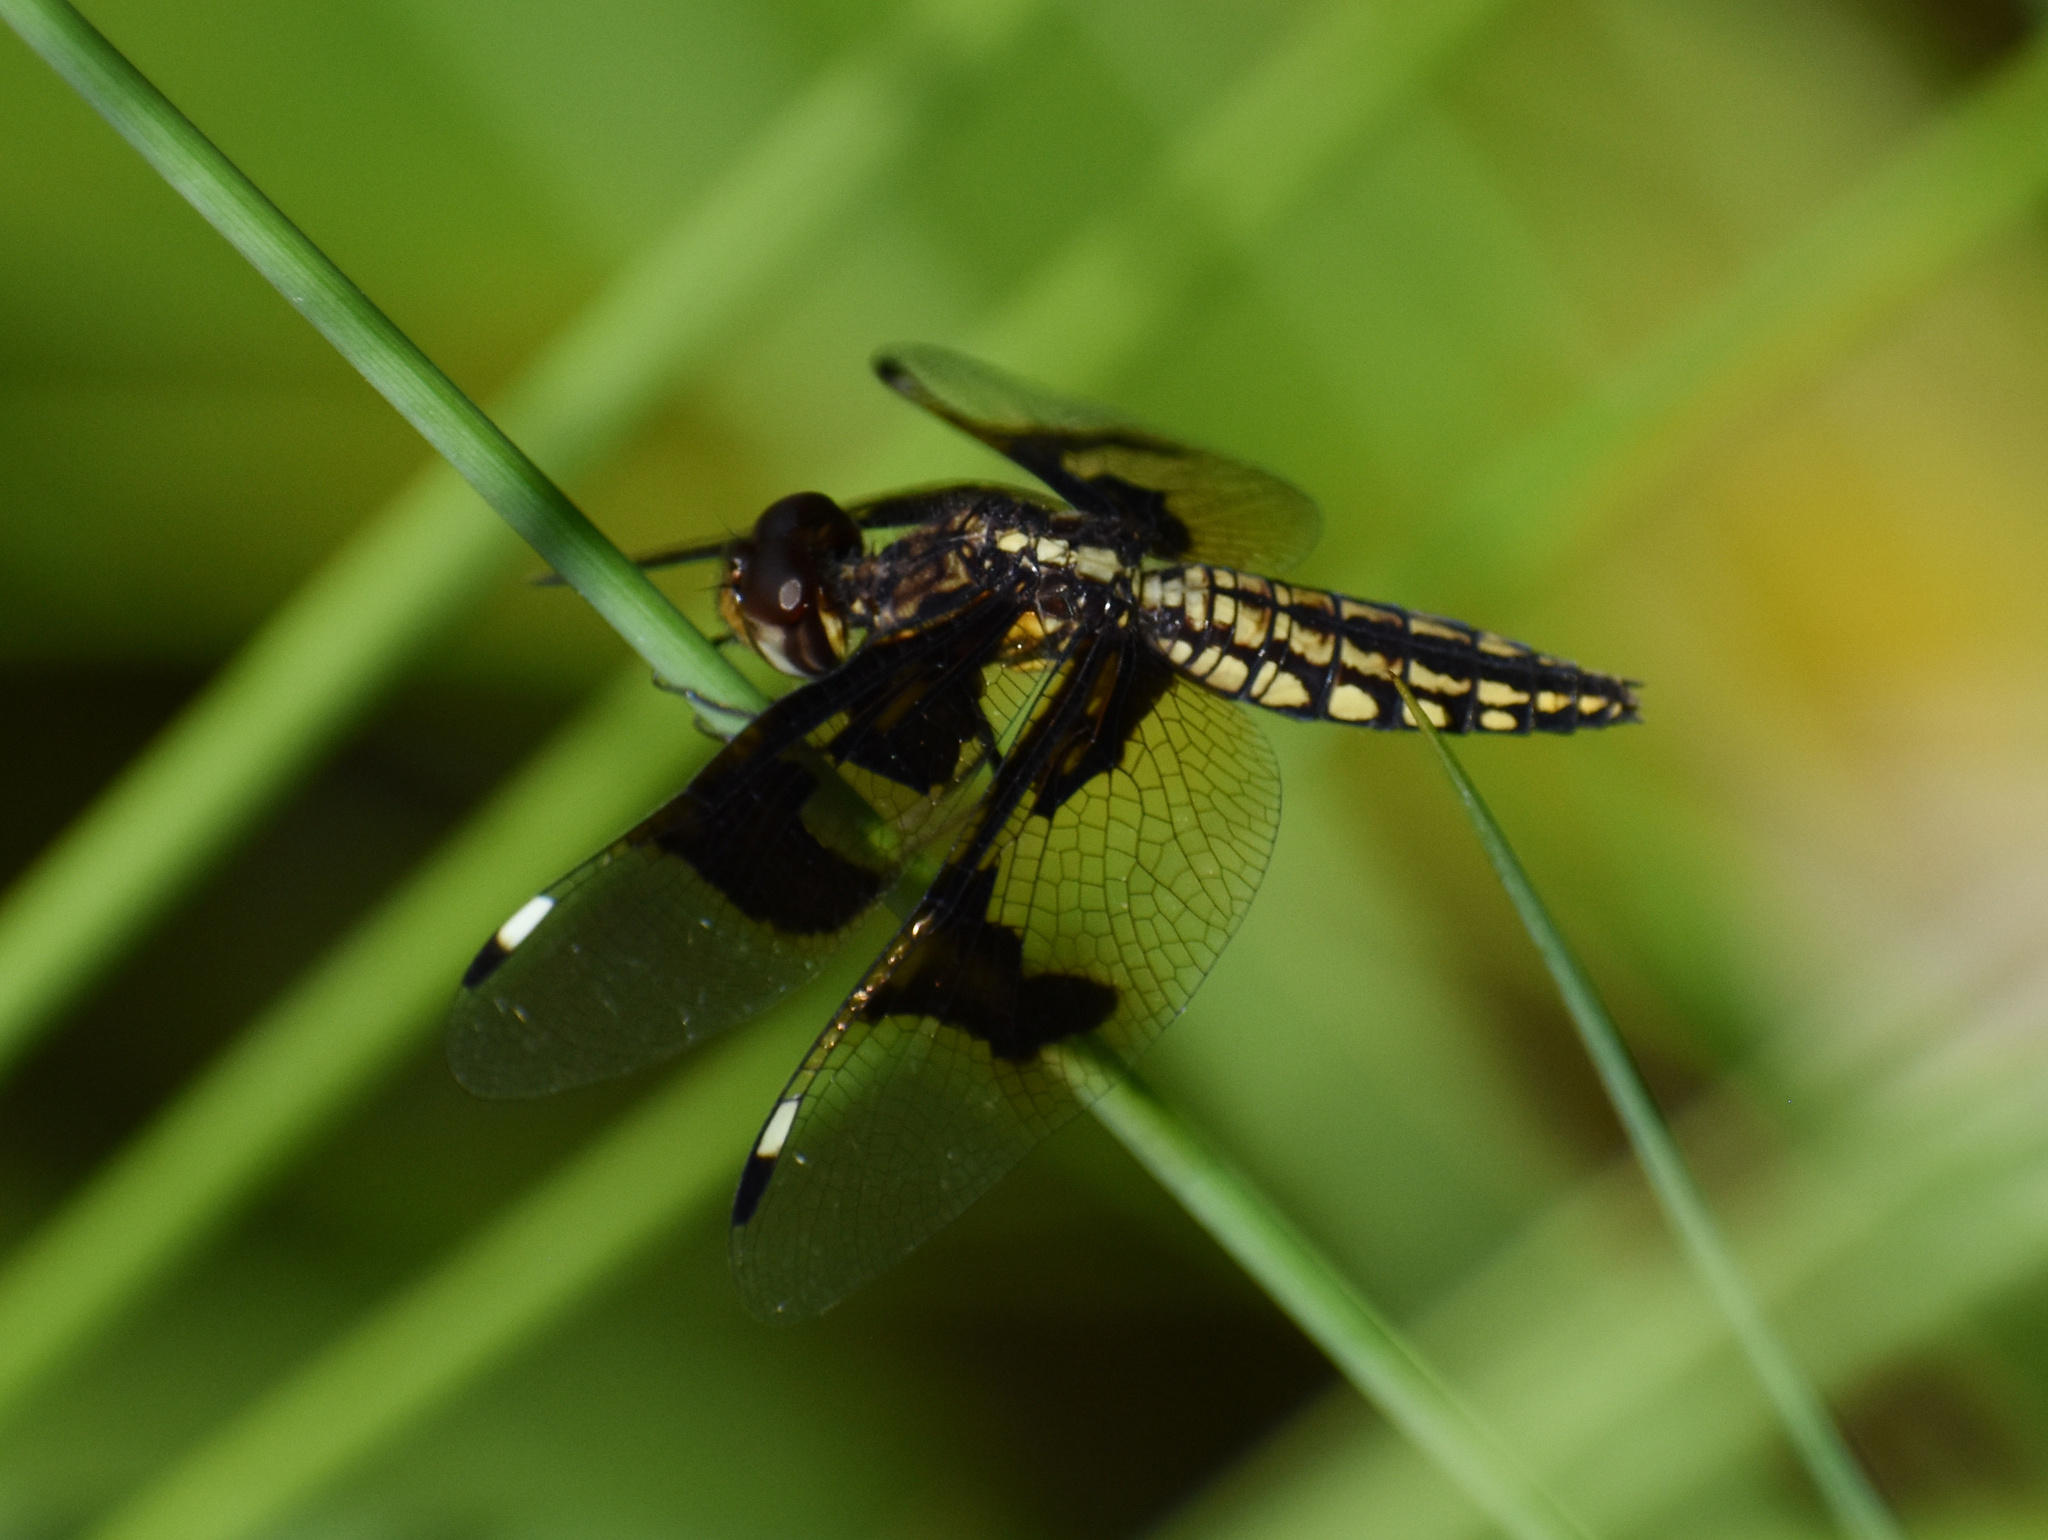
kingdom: Animalia
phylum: Arthropoda
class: Insecta
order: Odonata
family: Libellulidae
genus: Palpopleura
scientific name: Palpopleura lucia
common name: Lucia widow
